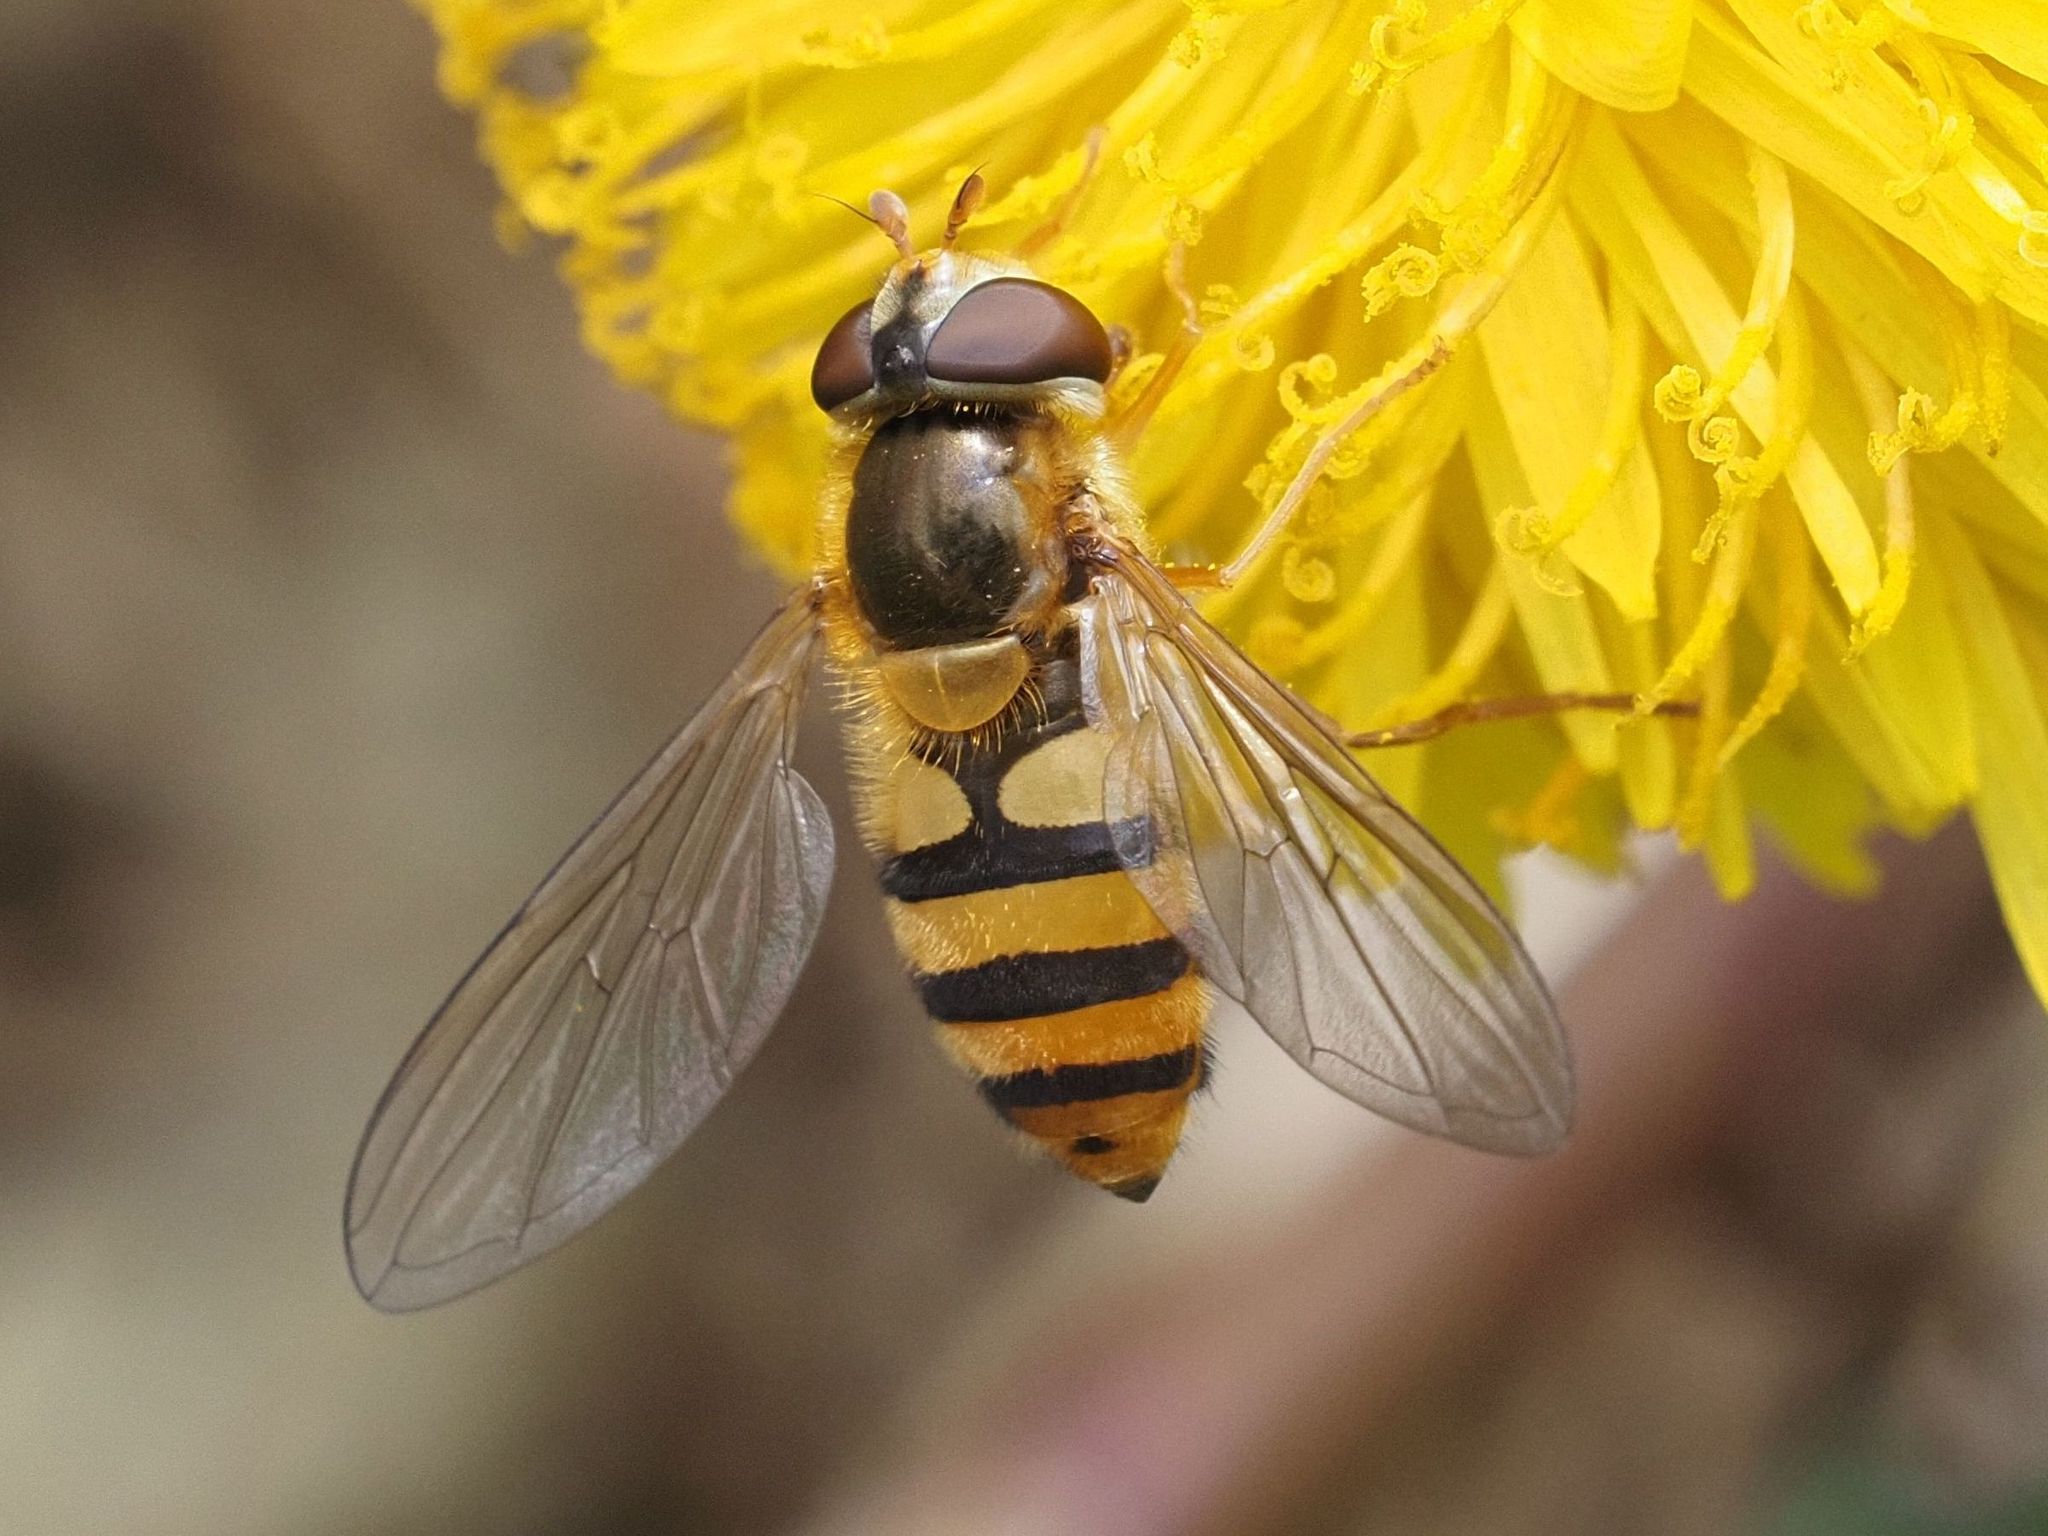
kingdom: Animalia
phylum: Arthropoda
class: Insecta
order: Diptera
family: Syrphidae
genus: Epistrophe
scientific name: Epistrophe nitidicollis
